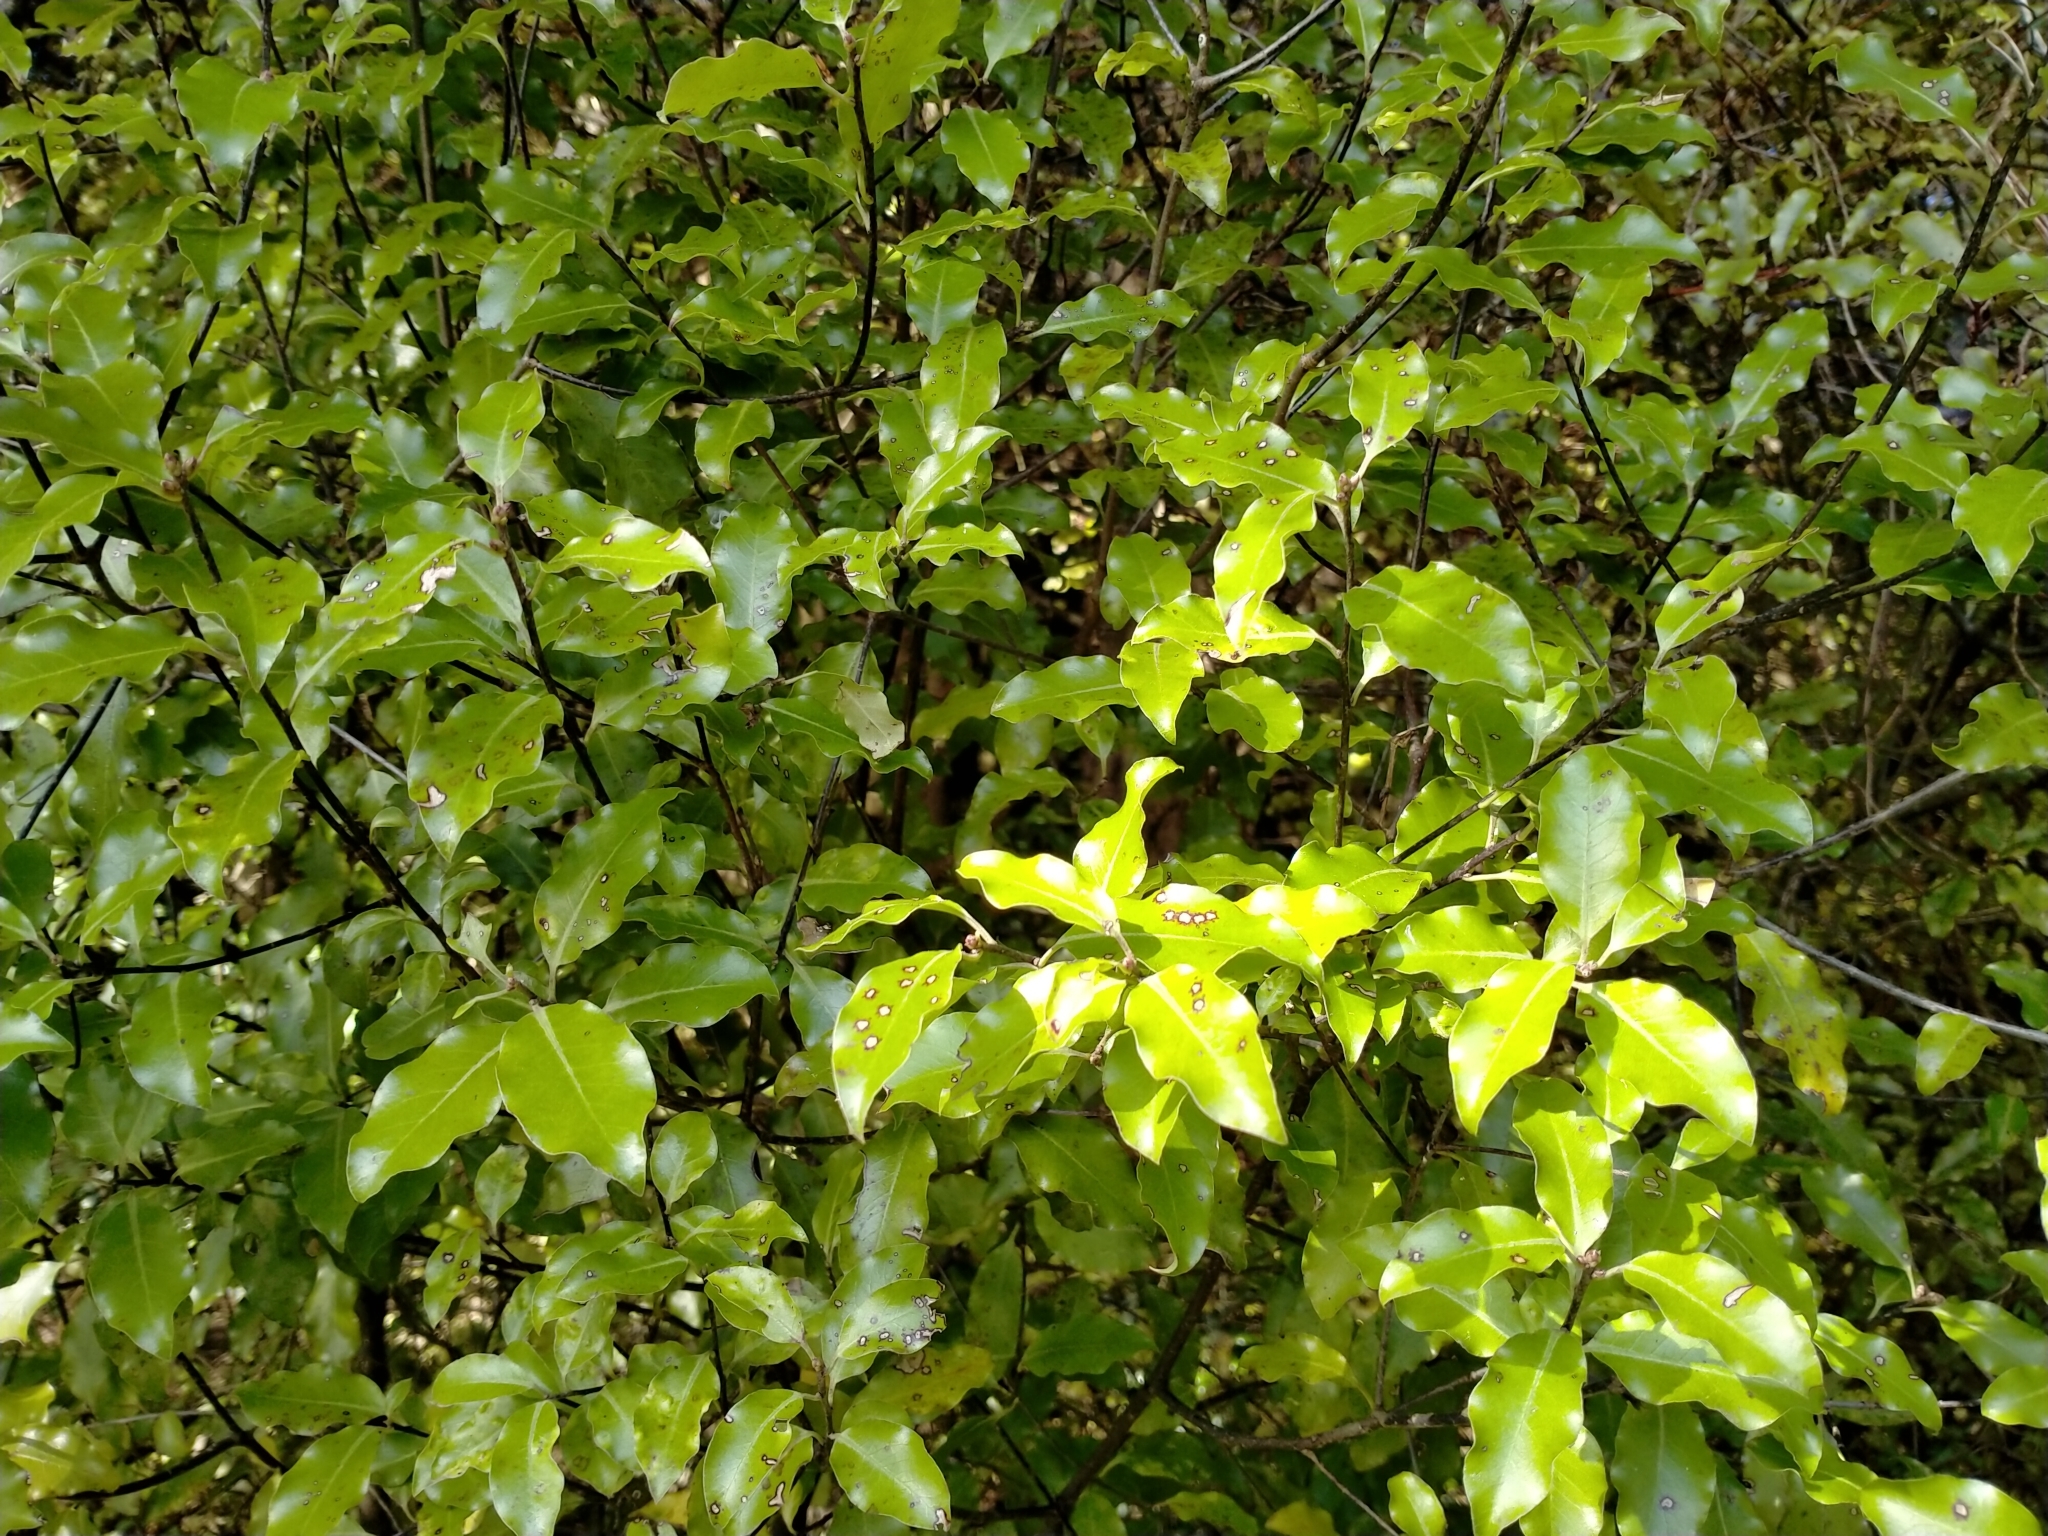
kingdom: Plantae
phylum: Tracheophyta
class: Magnoliopsida
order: Apiales
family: Pittosporaceae
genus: Pittosporum
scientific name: Pittosporum tenuifolium
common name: Kohuhu
